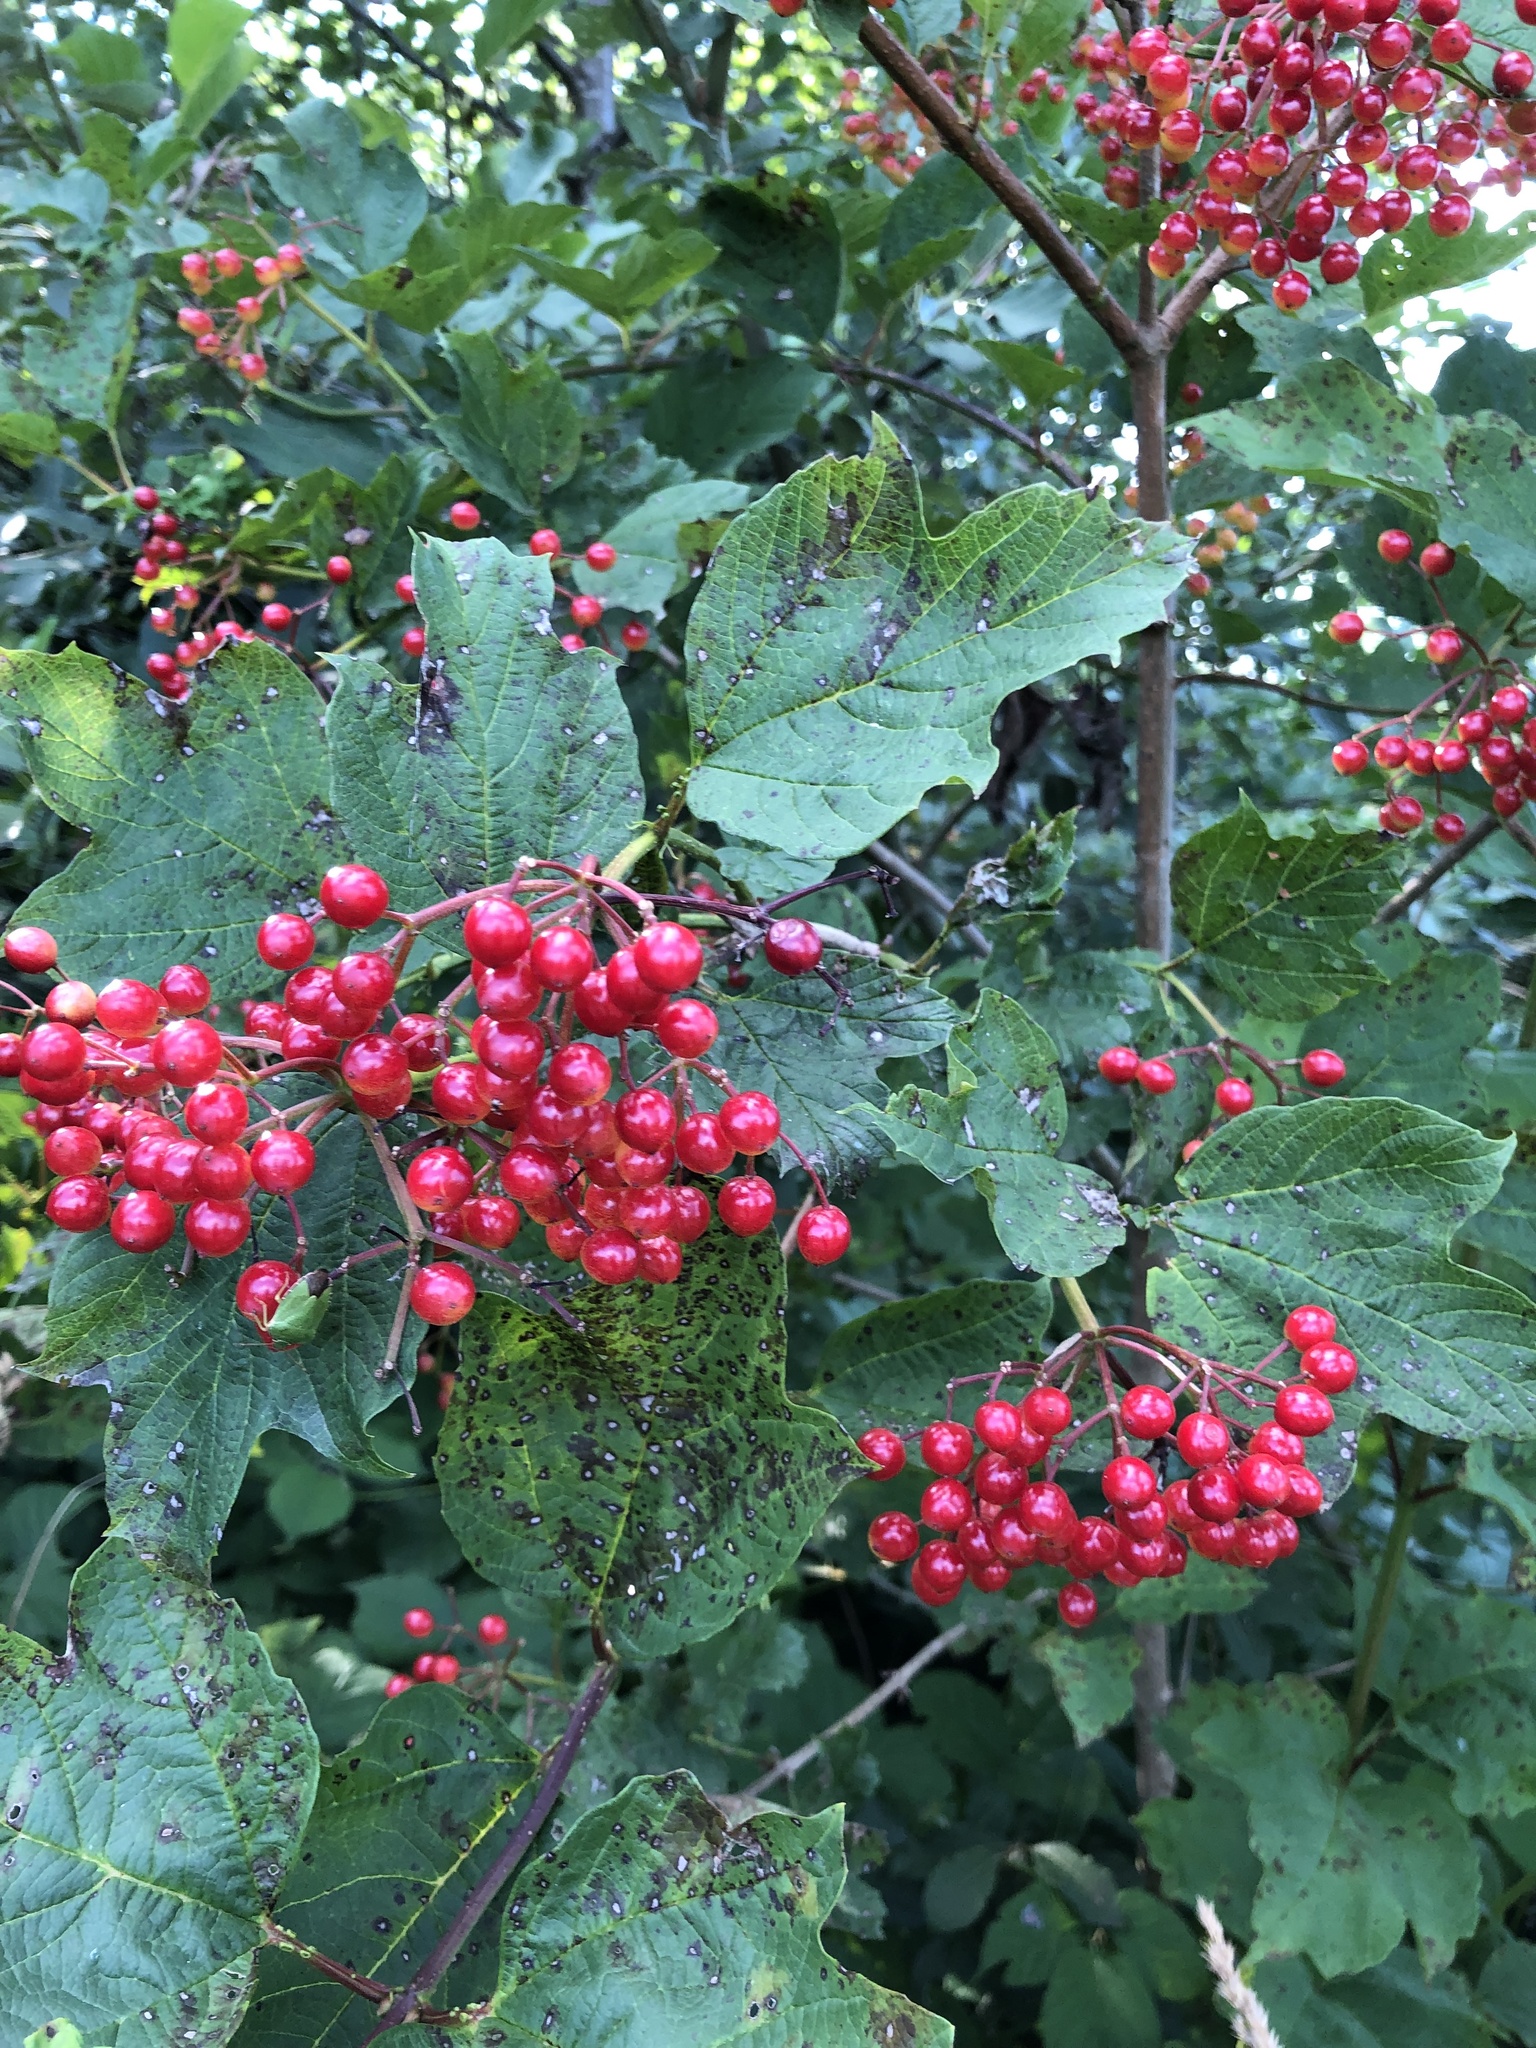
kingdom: Plantae
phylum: Tracheophyta
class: Magnoliopsida
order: Dipsacales
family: Viburnaceae
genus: Viburnum
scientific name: Viburnum opulus
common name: Guelder-rose
